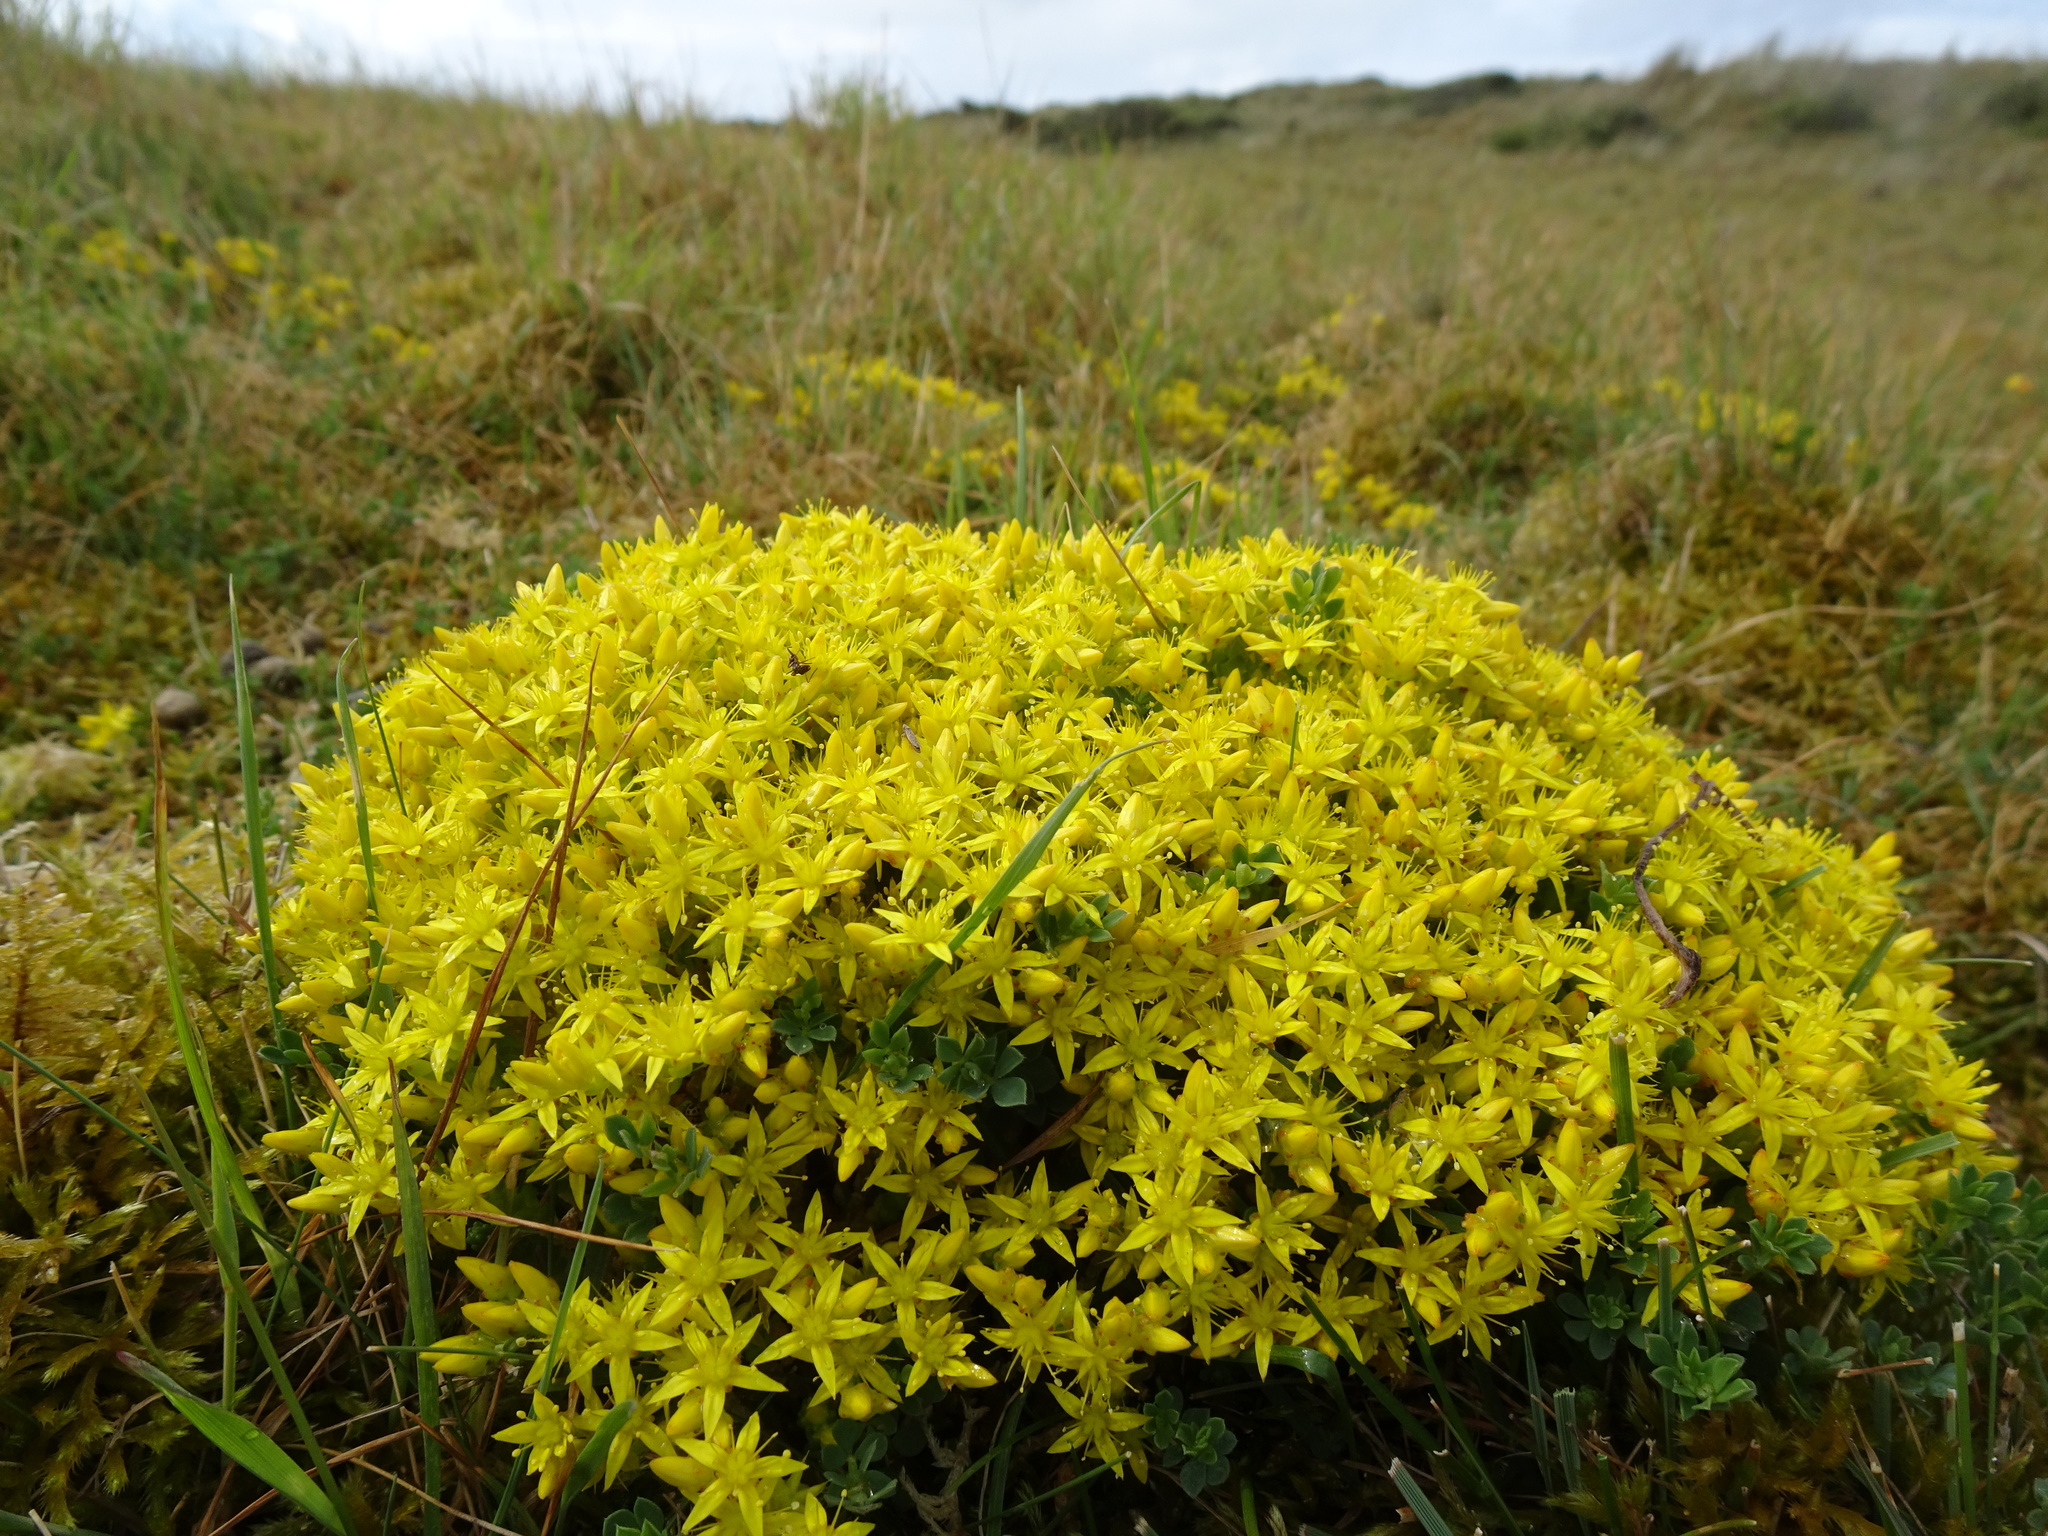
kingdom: Plantae
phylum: Tracheophyta
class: Magnoliopsida
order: Saxifragales
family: Crassulaceae
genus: Sedum
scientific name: Sedum acre
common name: Biting stonecrop
